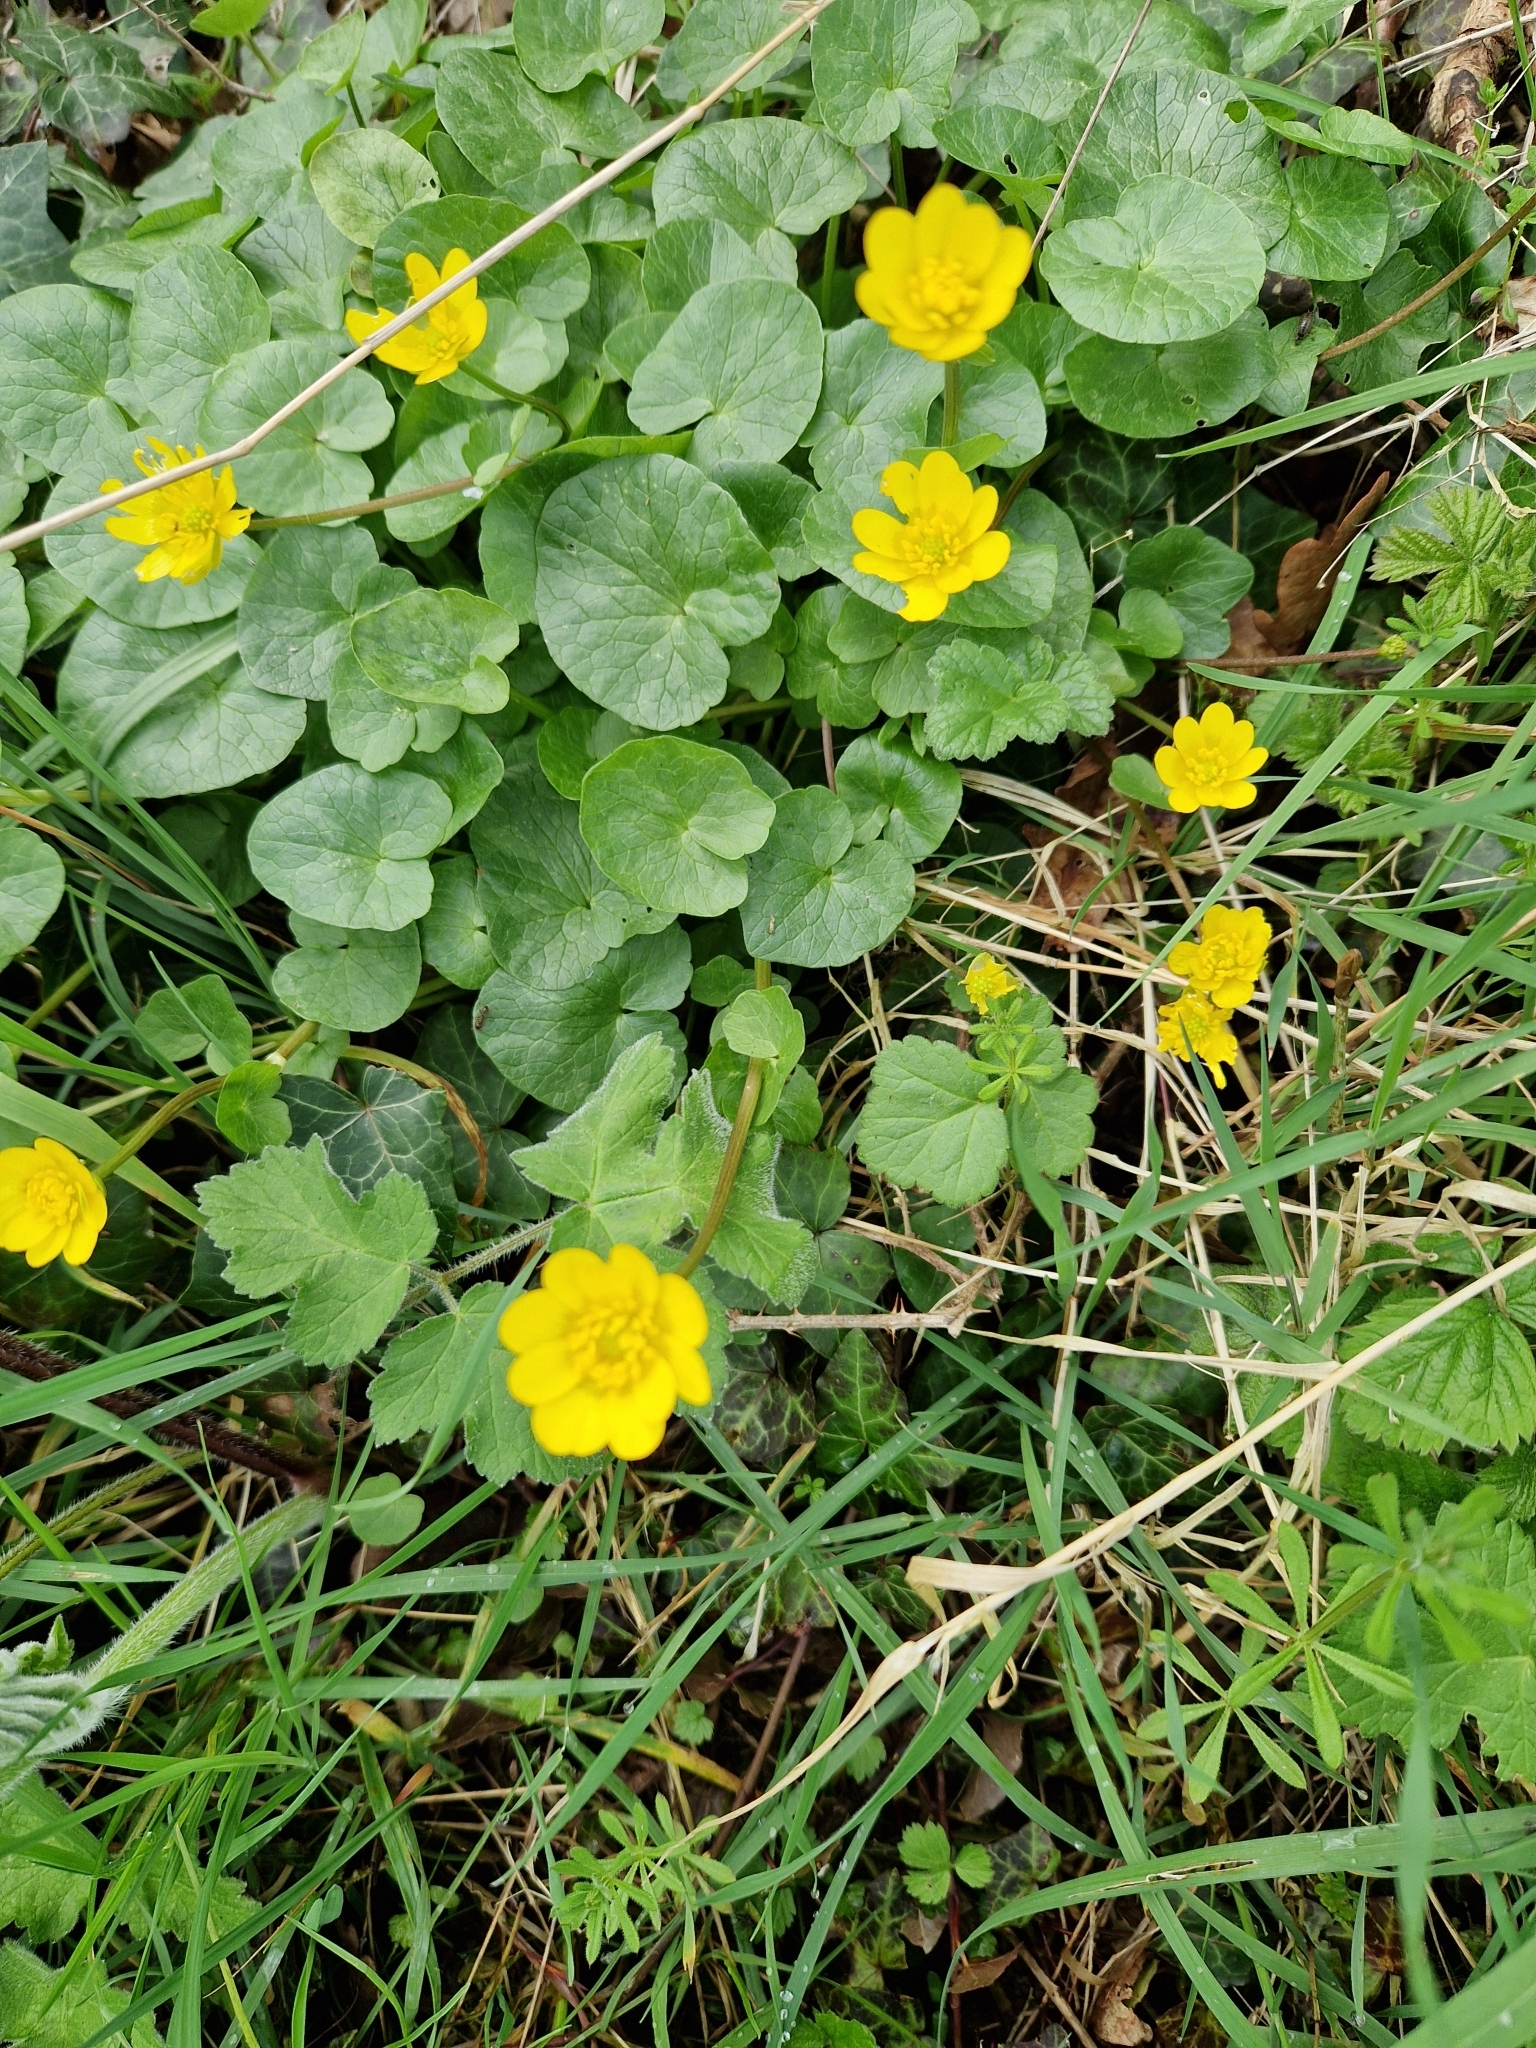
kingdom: Plantae
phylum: Tracheophyta
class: Magnoliopsida
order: Ranunculales
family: Ranunculaceae
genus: Ficaria
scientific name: Ficaria verna
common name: Lesser celandine
